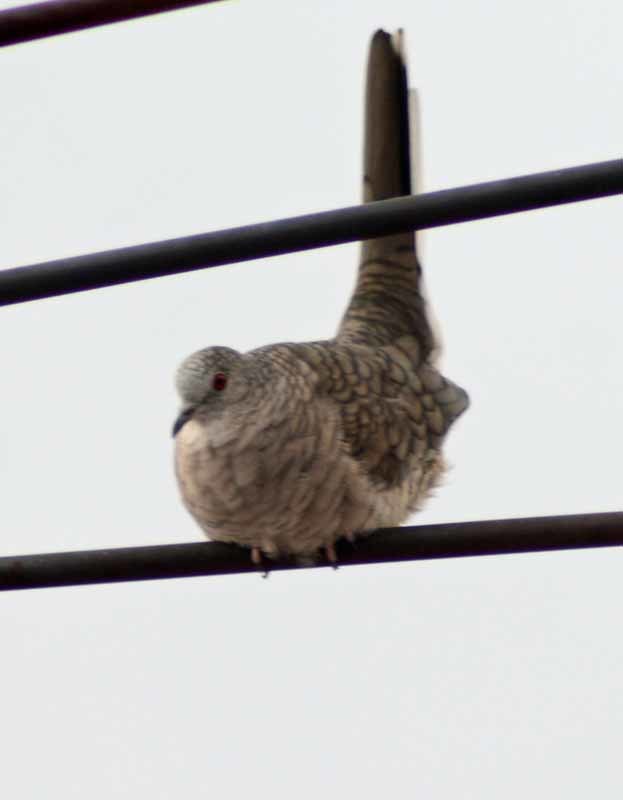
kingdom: Animalia
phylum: Chordata
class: Aves
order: Columbiformes
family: Columbidae
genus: Columbina
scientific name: Columbina inca
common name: Inca dove
